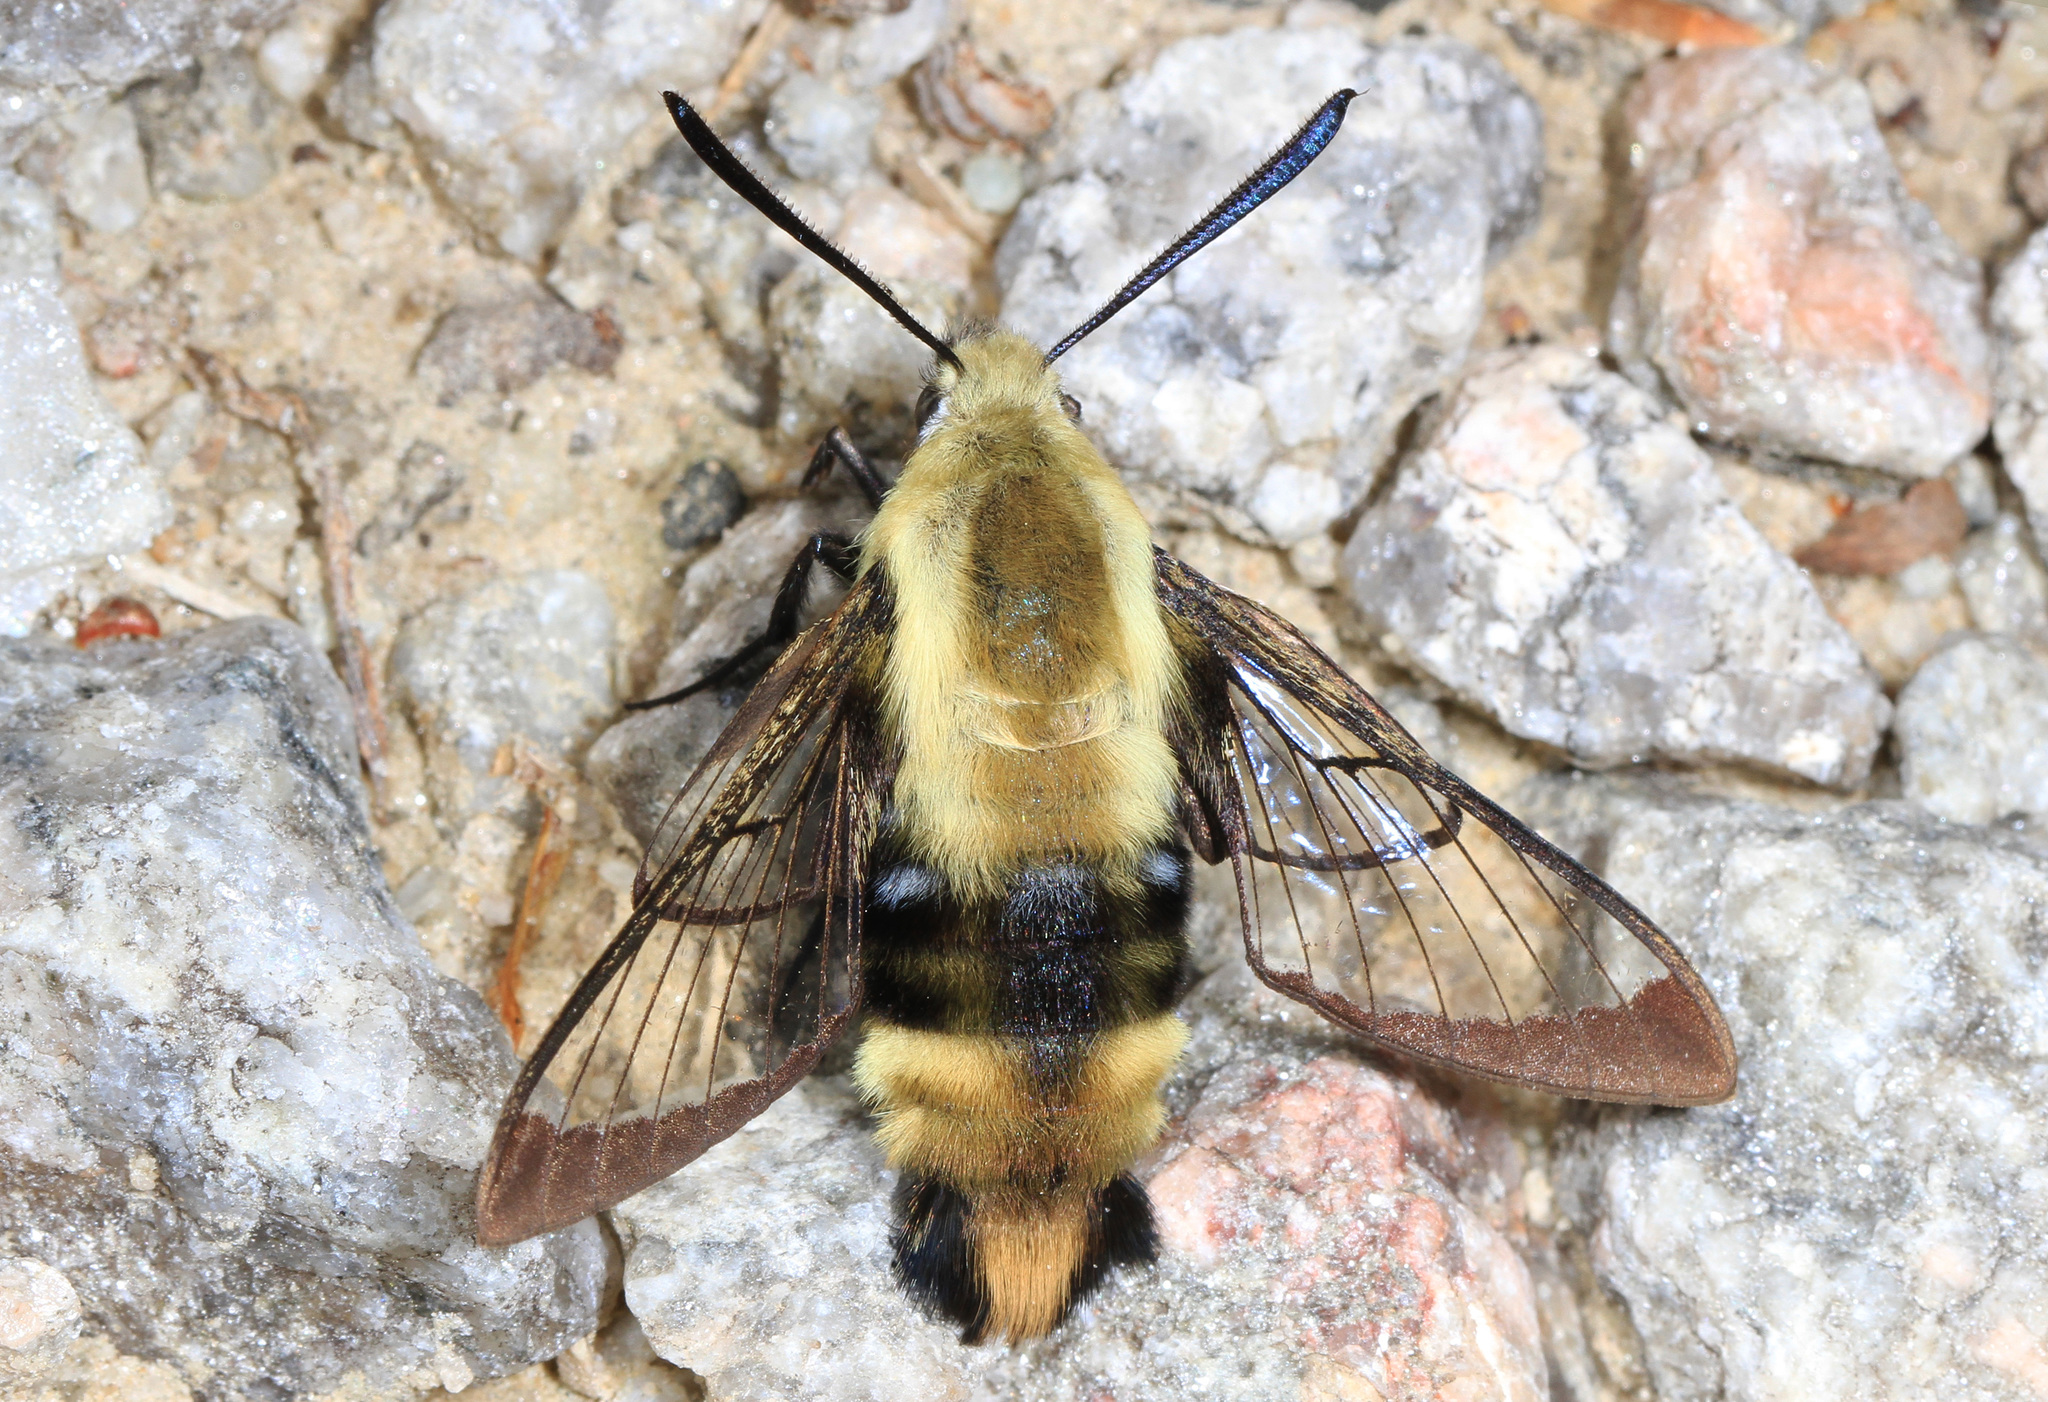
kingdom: Animalia
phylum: Arthropoda
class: Insecta
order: Lepidoptera
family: Sphingidae
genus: Hemaris
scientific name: Hemaris diffinis
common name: Bumblebee moth
